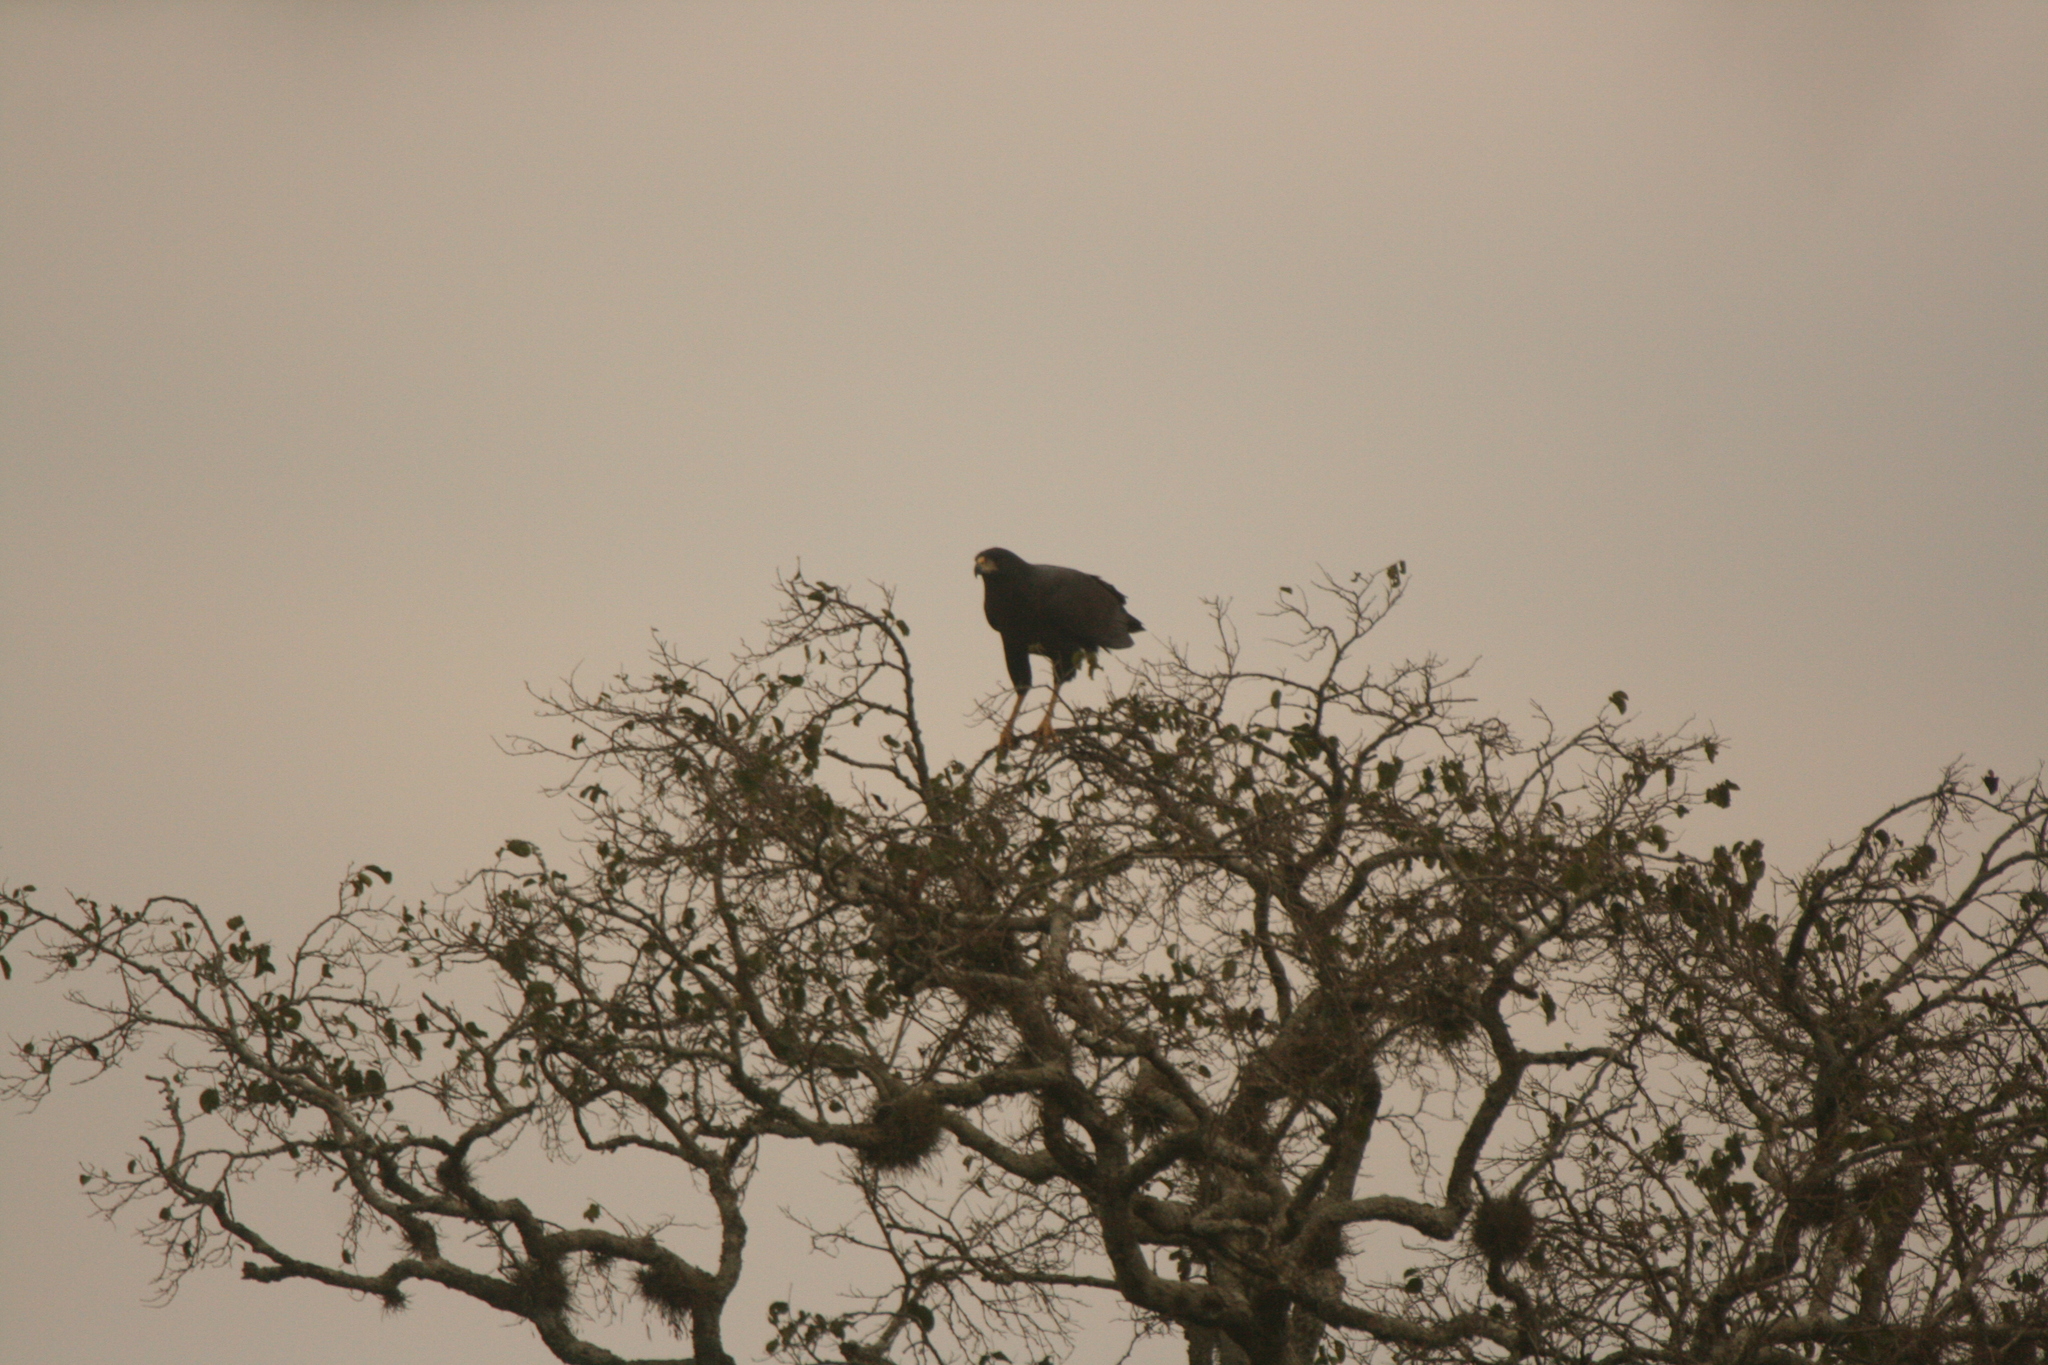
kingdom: Animalia
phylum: Chordata
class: Aves
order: Accipitriformes
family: Accipitridae
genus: Buteogallus
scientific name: Buteogallus urubitinga
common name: Great black hawk
